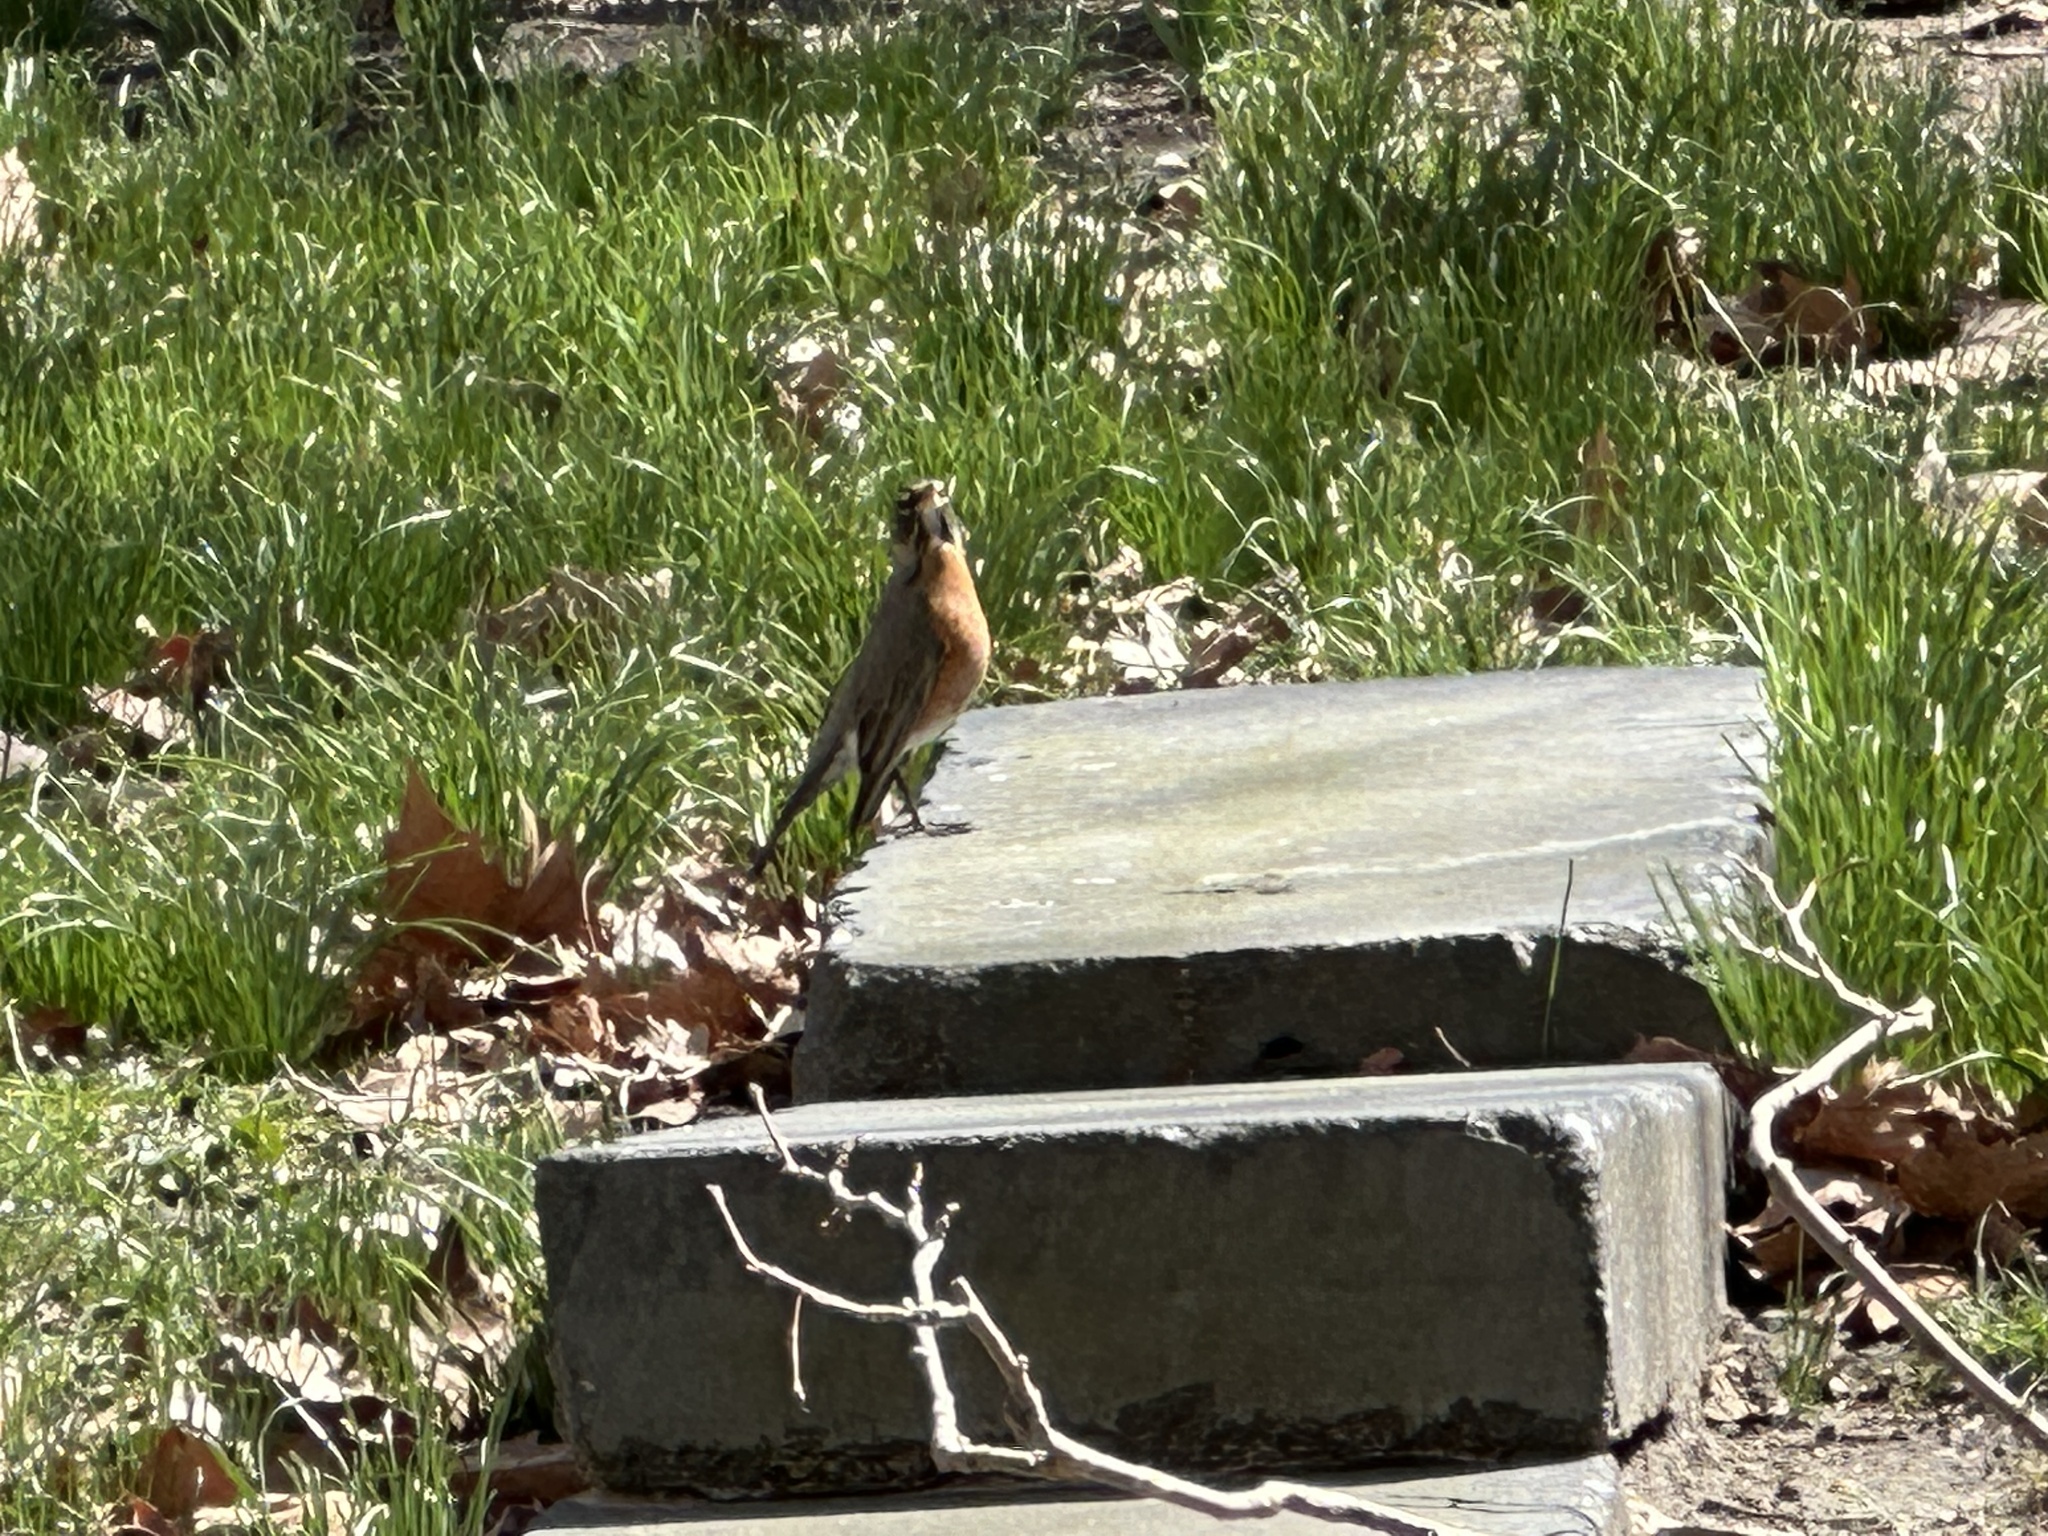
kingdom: Animalia
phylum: Chordata
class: Aves
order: Passeriformes
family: Turdidae
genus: Turdus
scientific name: Turdus migratorius
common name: American robin
